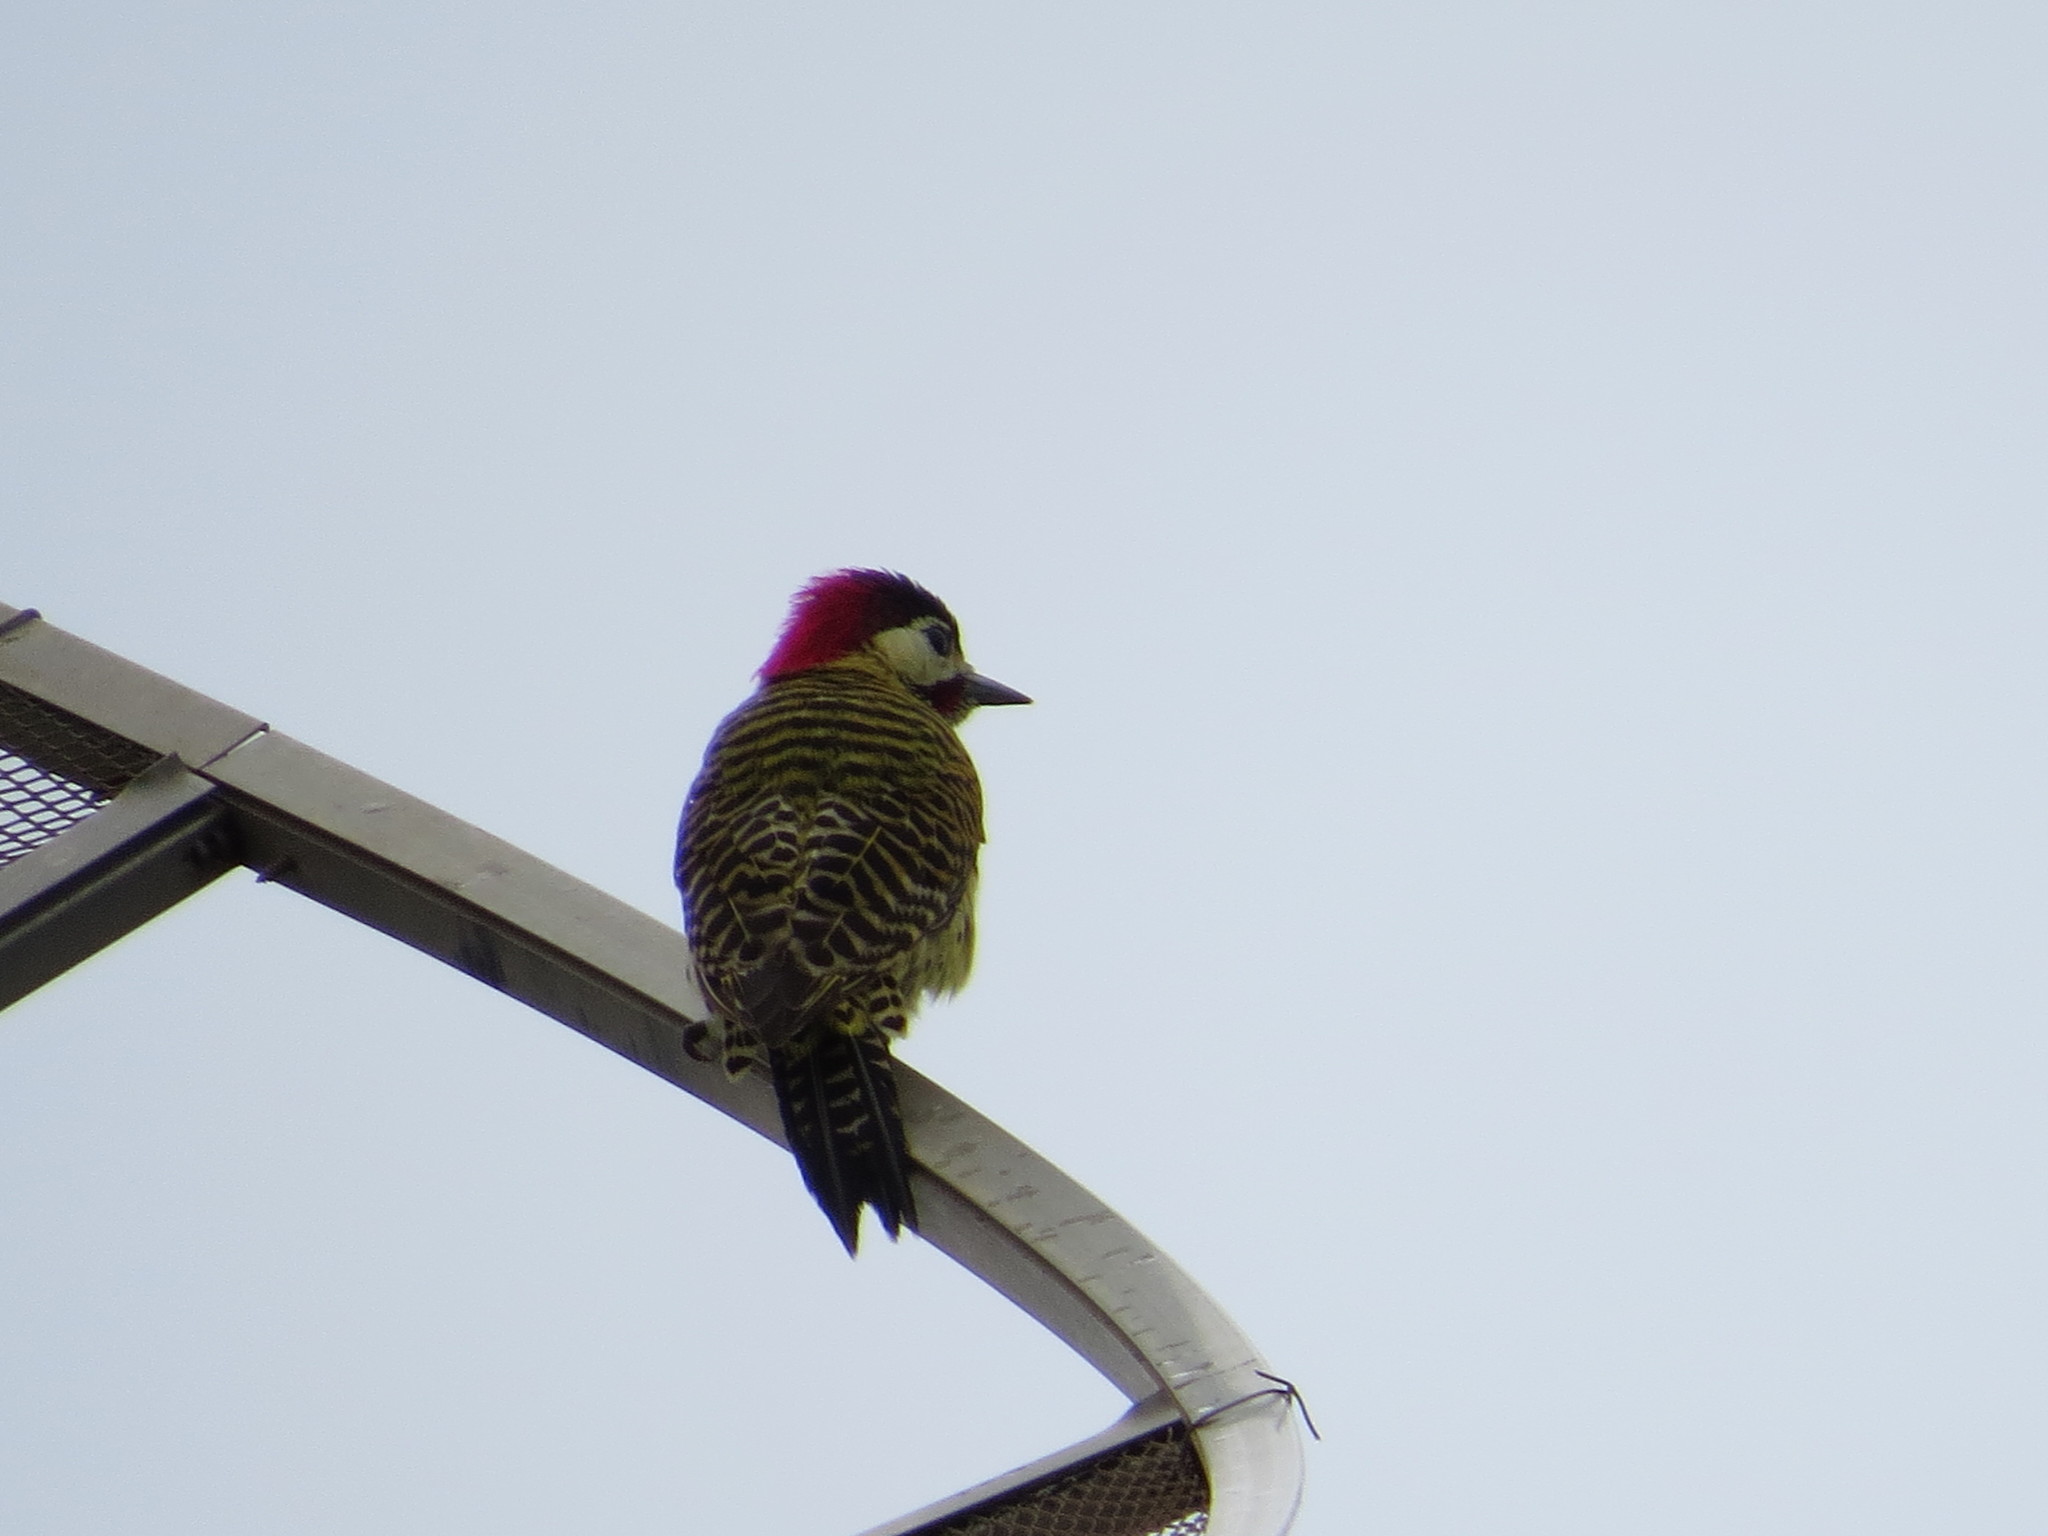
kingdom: Animalia
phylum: Chordata
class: Aves
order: Piciformes
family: Picidae
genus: Colaptes
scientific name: Colaptes melanochloros
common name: Green-barred woodpecker
